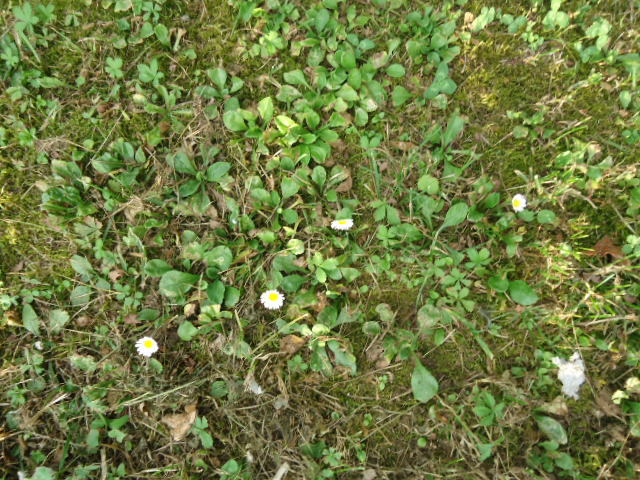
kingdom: Plantae
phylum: Tracheophyta
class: Magnoliopsida
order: Asterales
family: Asteraceae
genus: Bellis
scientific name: Bellis perennis
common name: Lawndaisy
